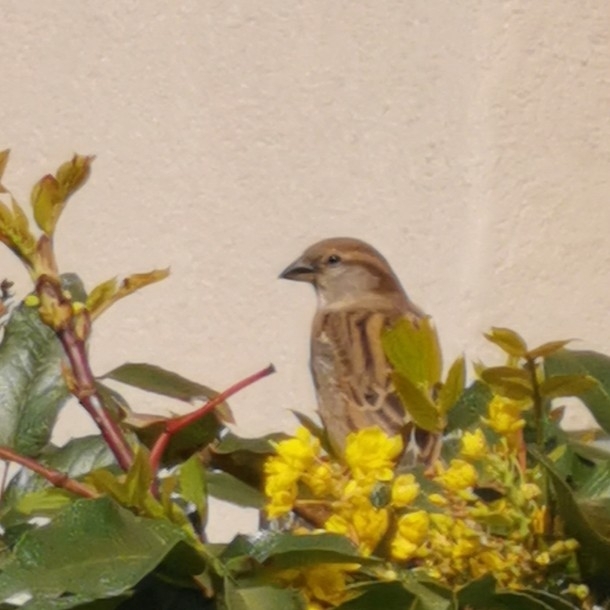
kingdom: Animalia
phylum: Chordata
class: Aves
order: Passeriformes
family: Passeridae
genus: Passer
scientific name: Passer domesticus
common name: House sparrow
